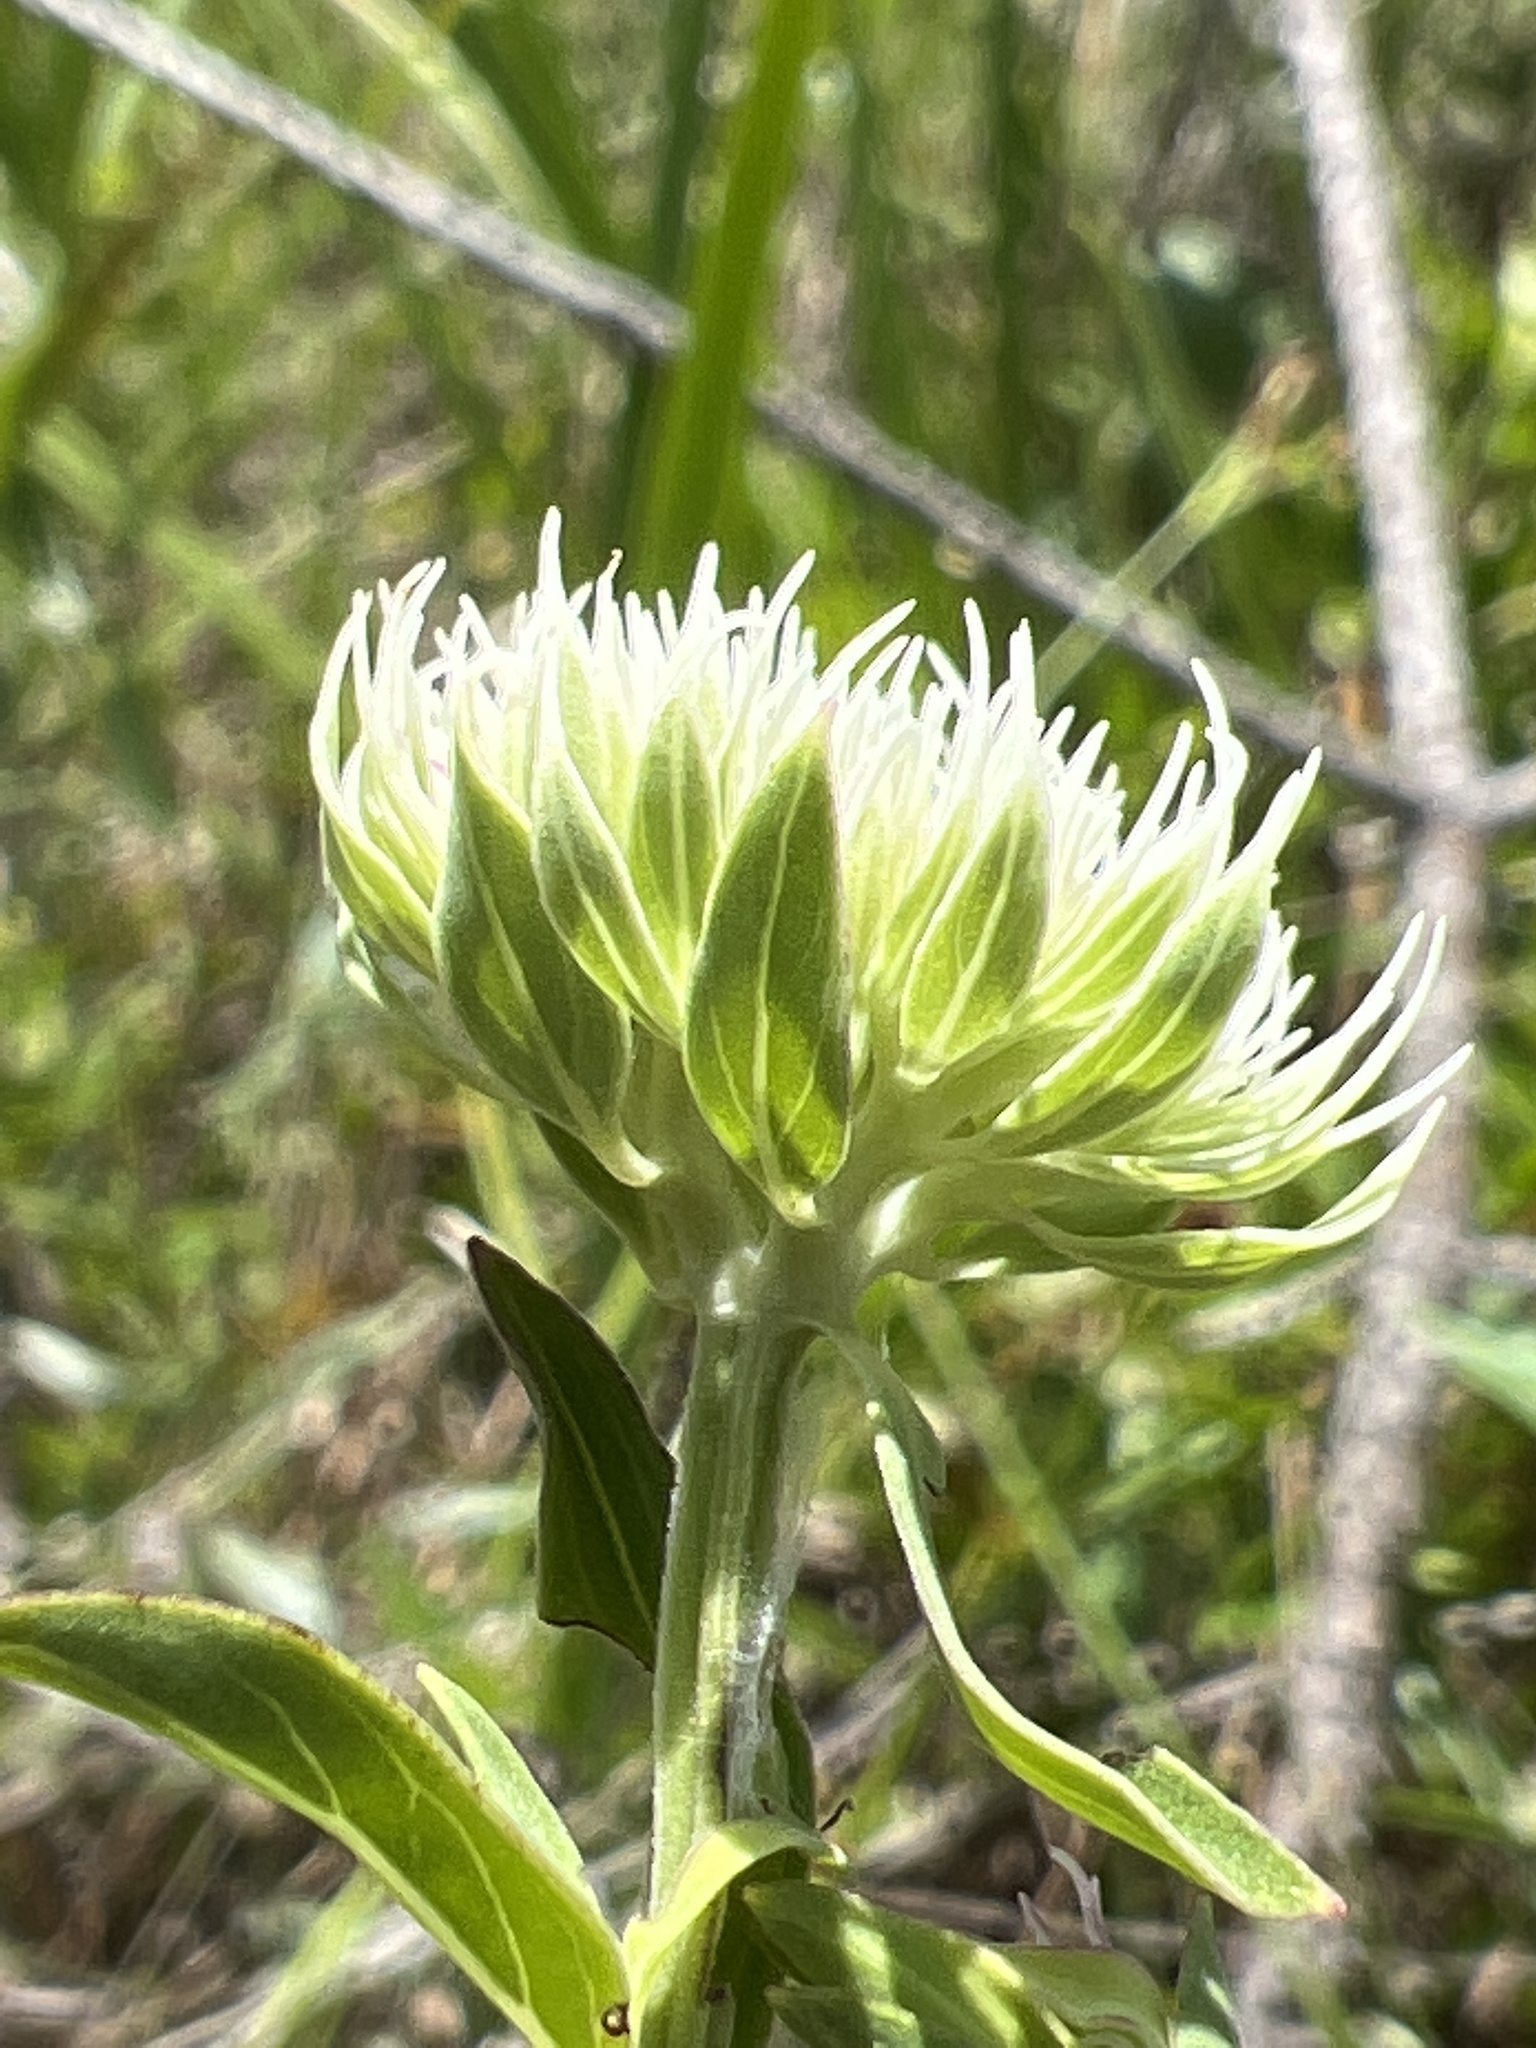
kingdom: Plantae
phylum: Tracheophyta
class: Magnoliopsida
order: Lamiales
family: Lamiaceae
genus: Pycnanthemum
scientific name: Pycnanthemum flexuosum
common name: Appalachian mountain-mint
